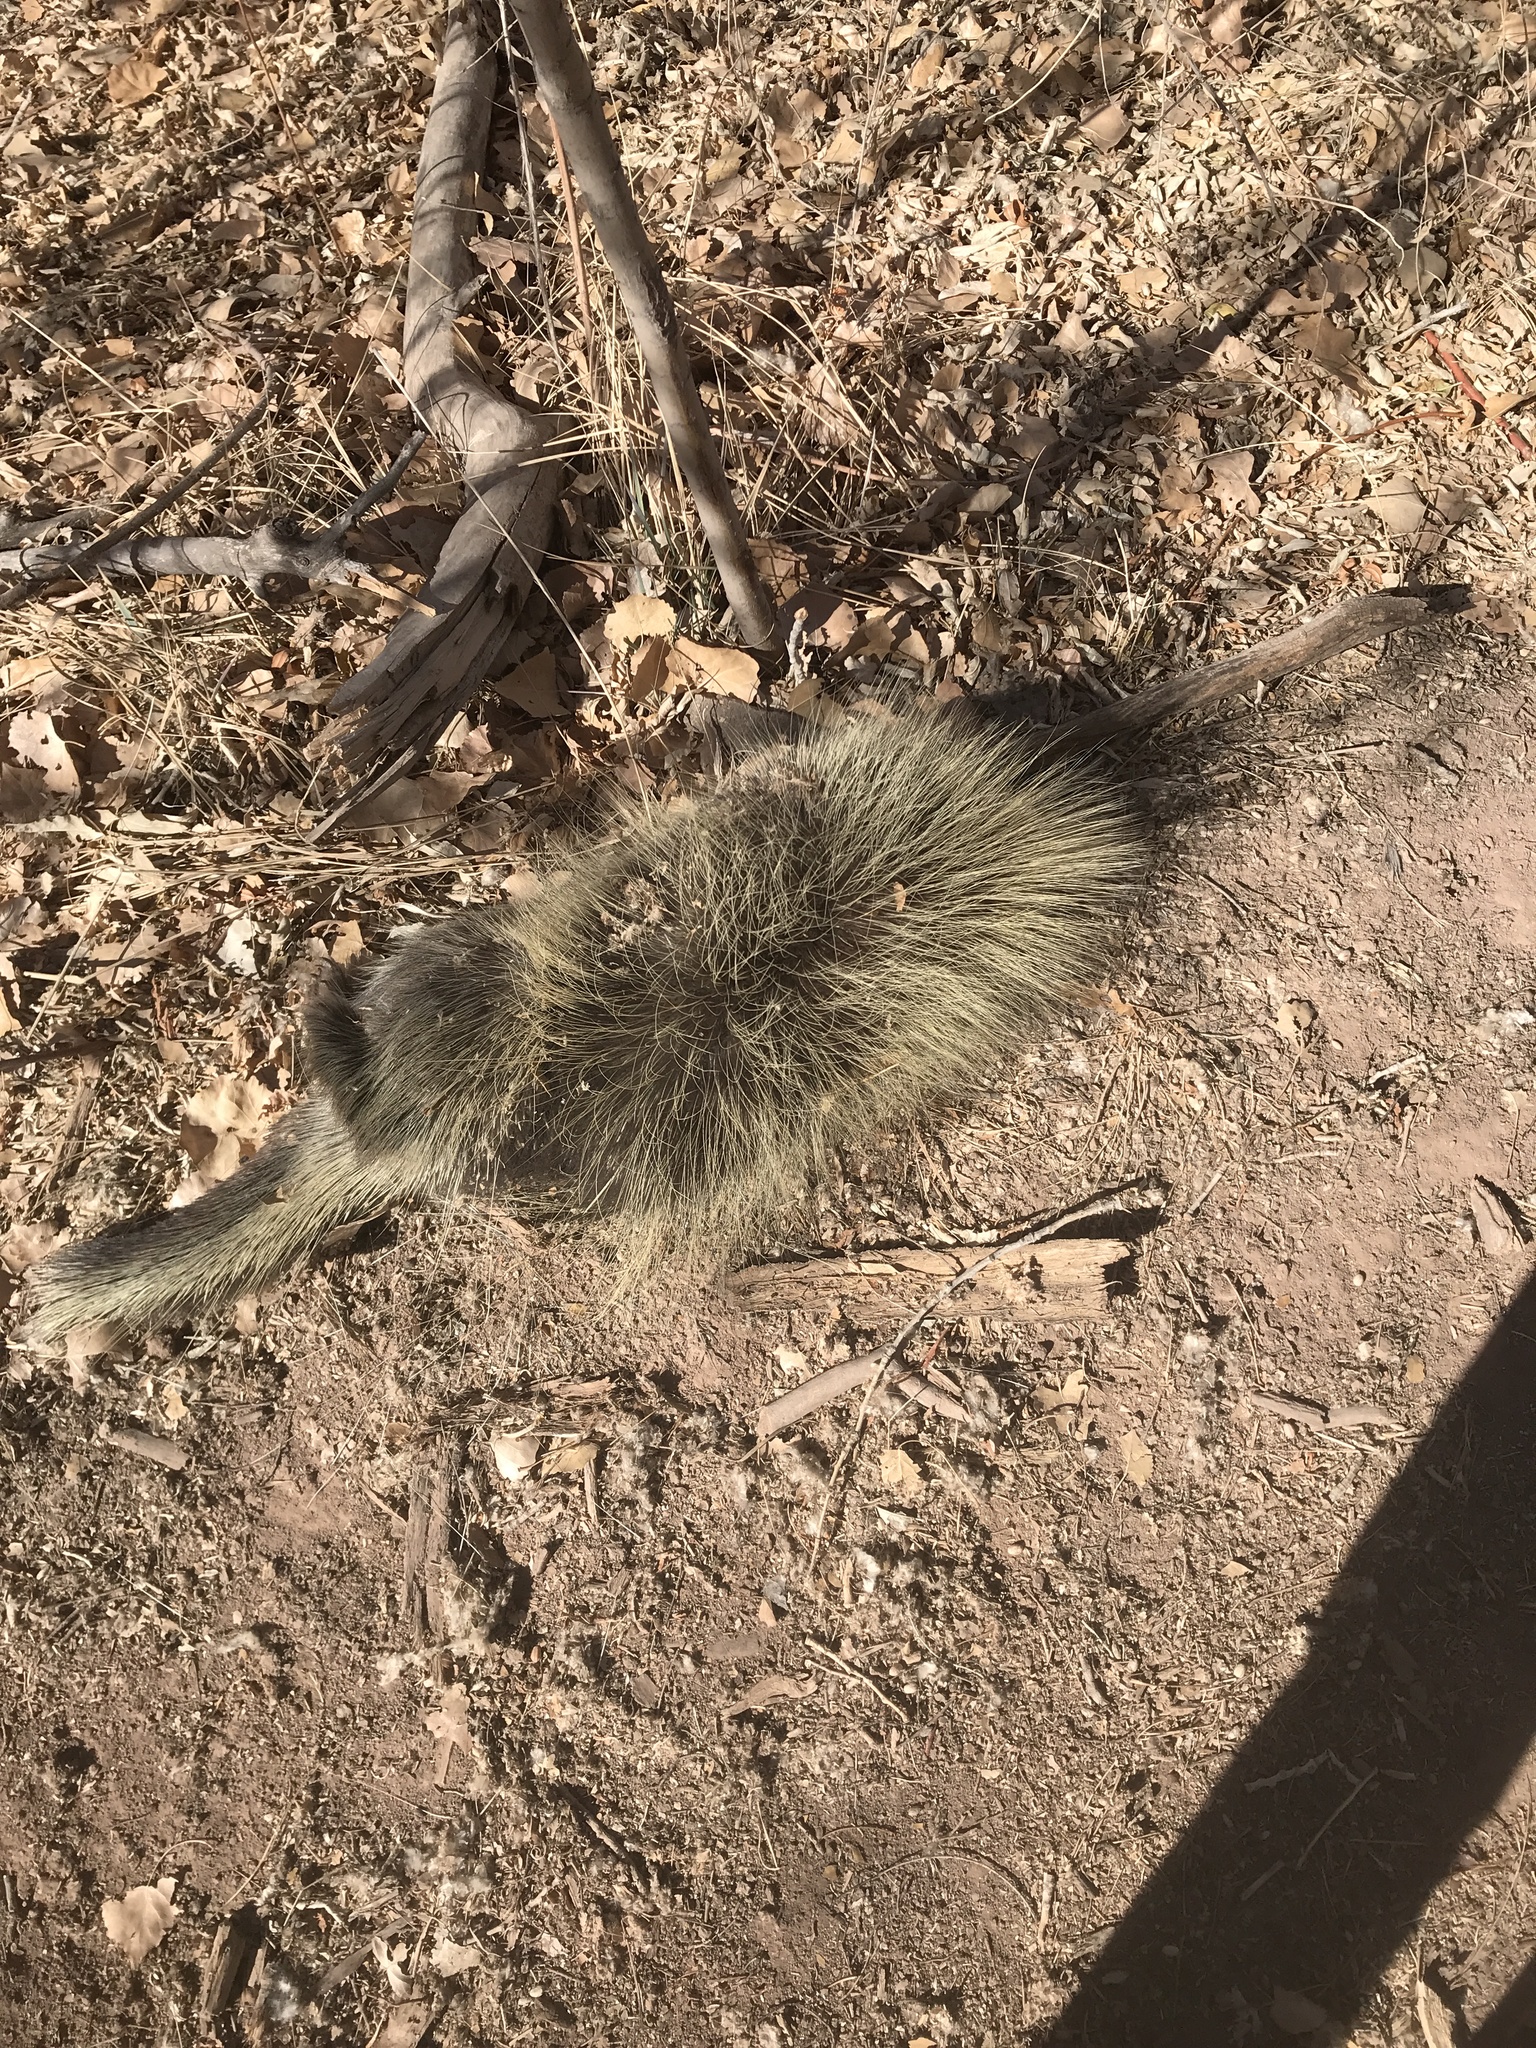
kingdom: Animalia
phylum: Chordata
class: Mammalia
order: Rodentia
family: Erethizontidae
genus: Erethizon
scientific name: Erethizon dorsatus
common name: North american porcupine
